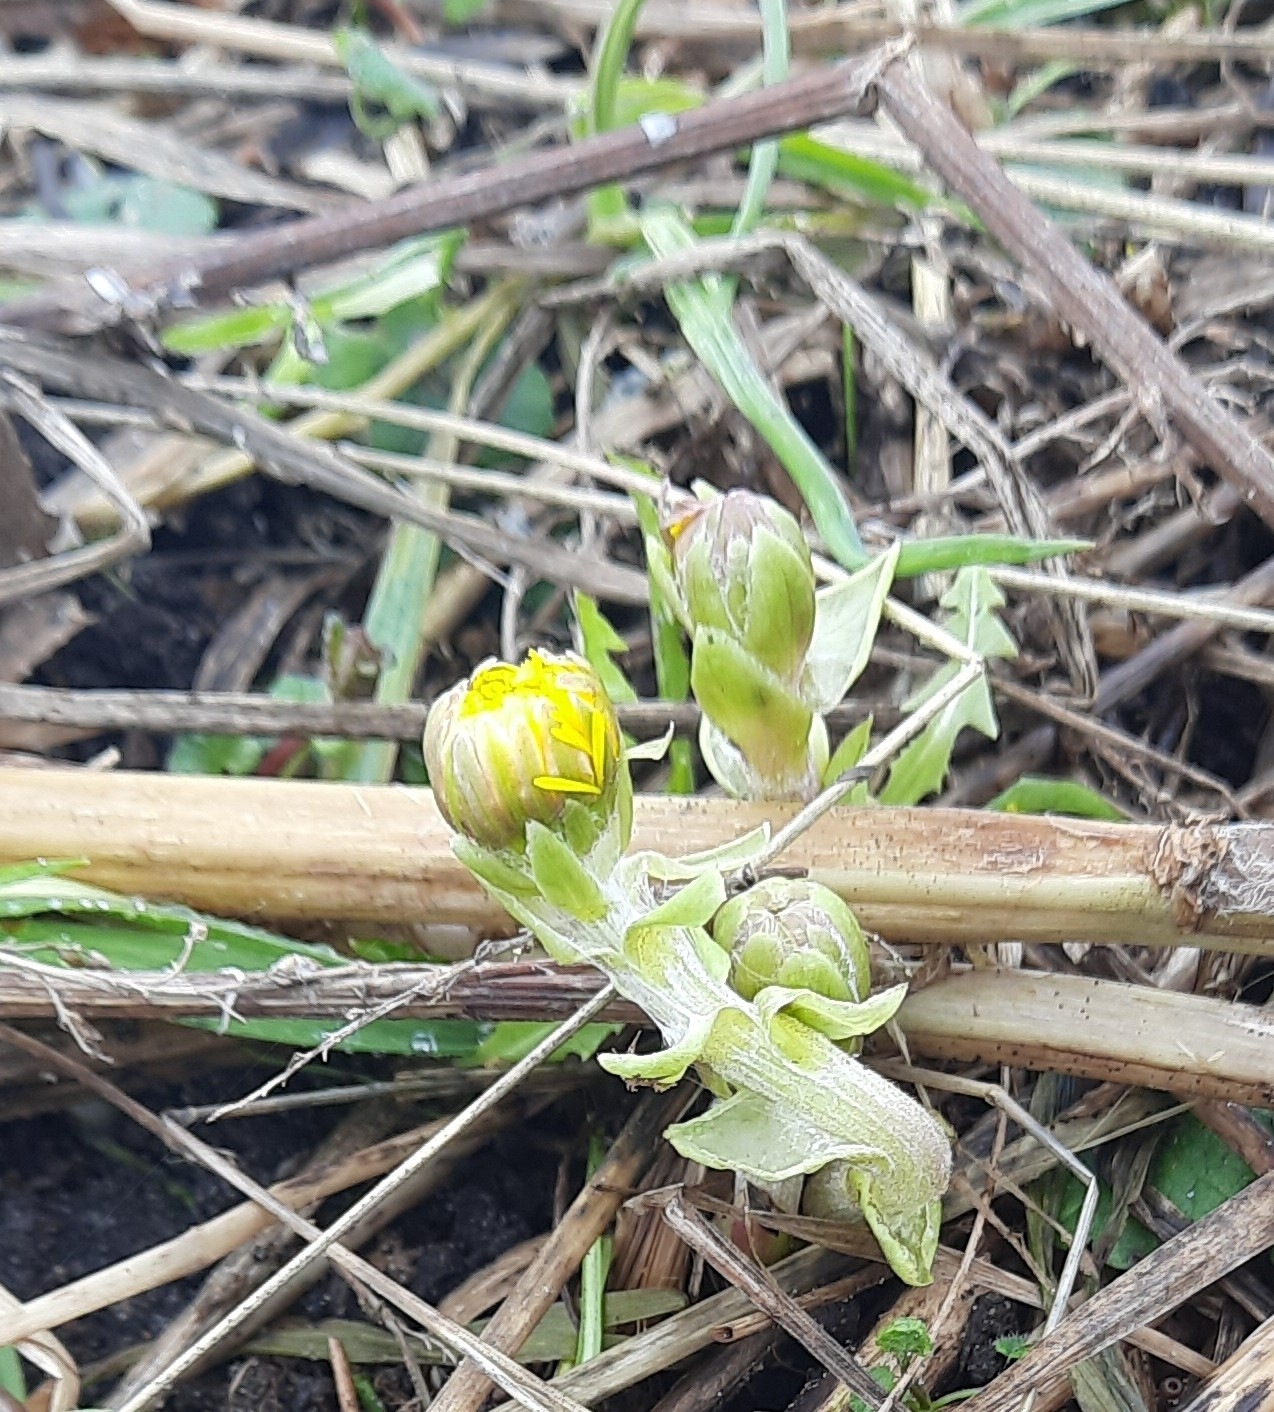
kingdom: Plantae
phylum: Tracheophyta
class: Magnoliopsida
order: Asterales
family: Asteraceae
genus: Tussilago
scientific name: Tussilago farfara
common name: Coltsfoot
